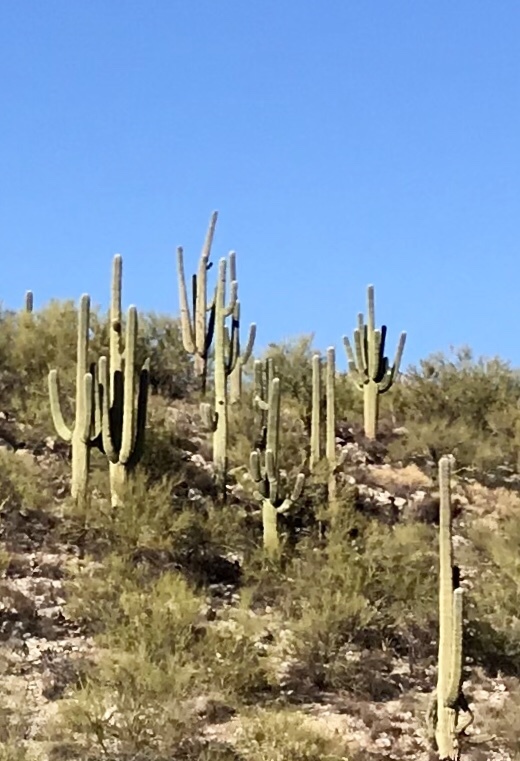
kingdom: Plantae
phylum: Tracheophyta
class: Magnoliopsida
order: Caryophyllales
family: Cactaceae
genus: Carnegiea
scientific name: Carnegiea gigantea
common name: Saguaro
